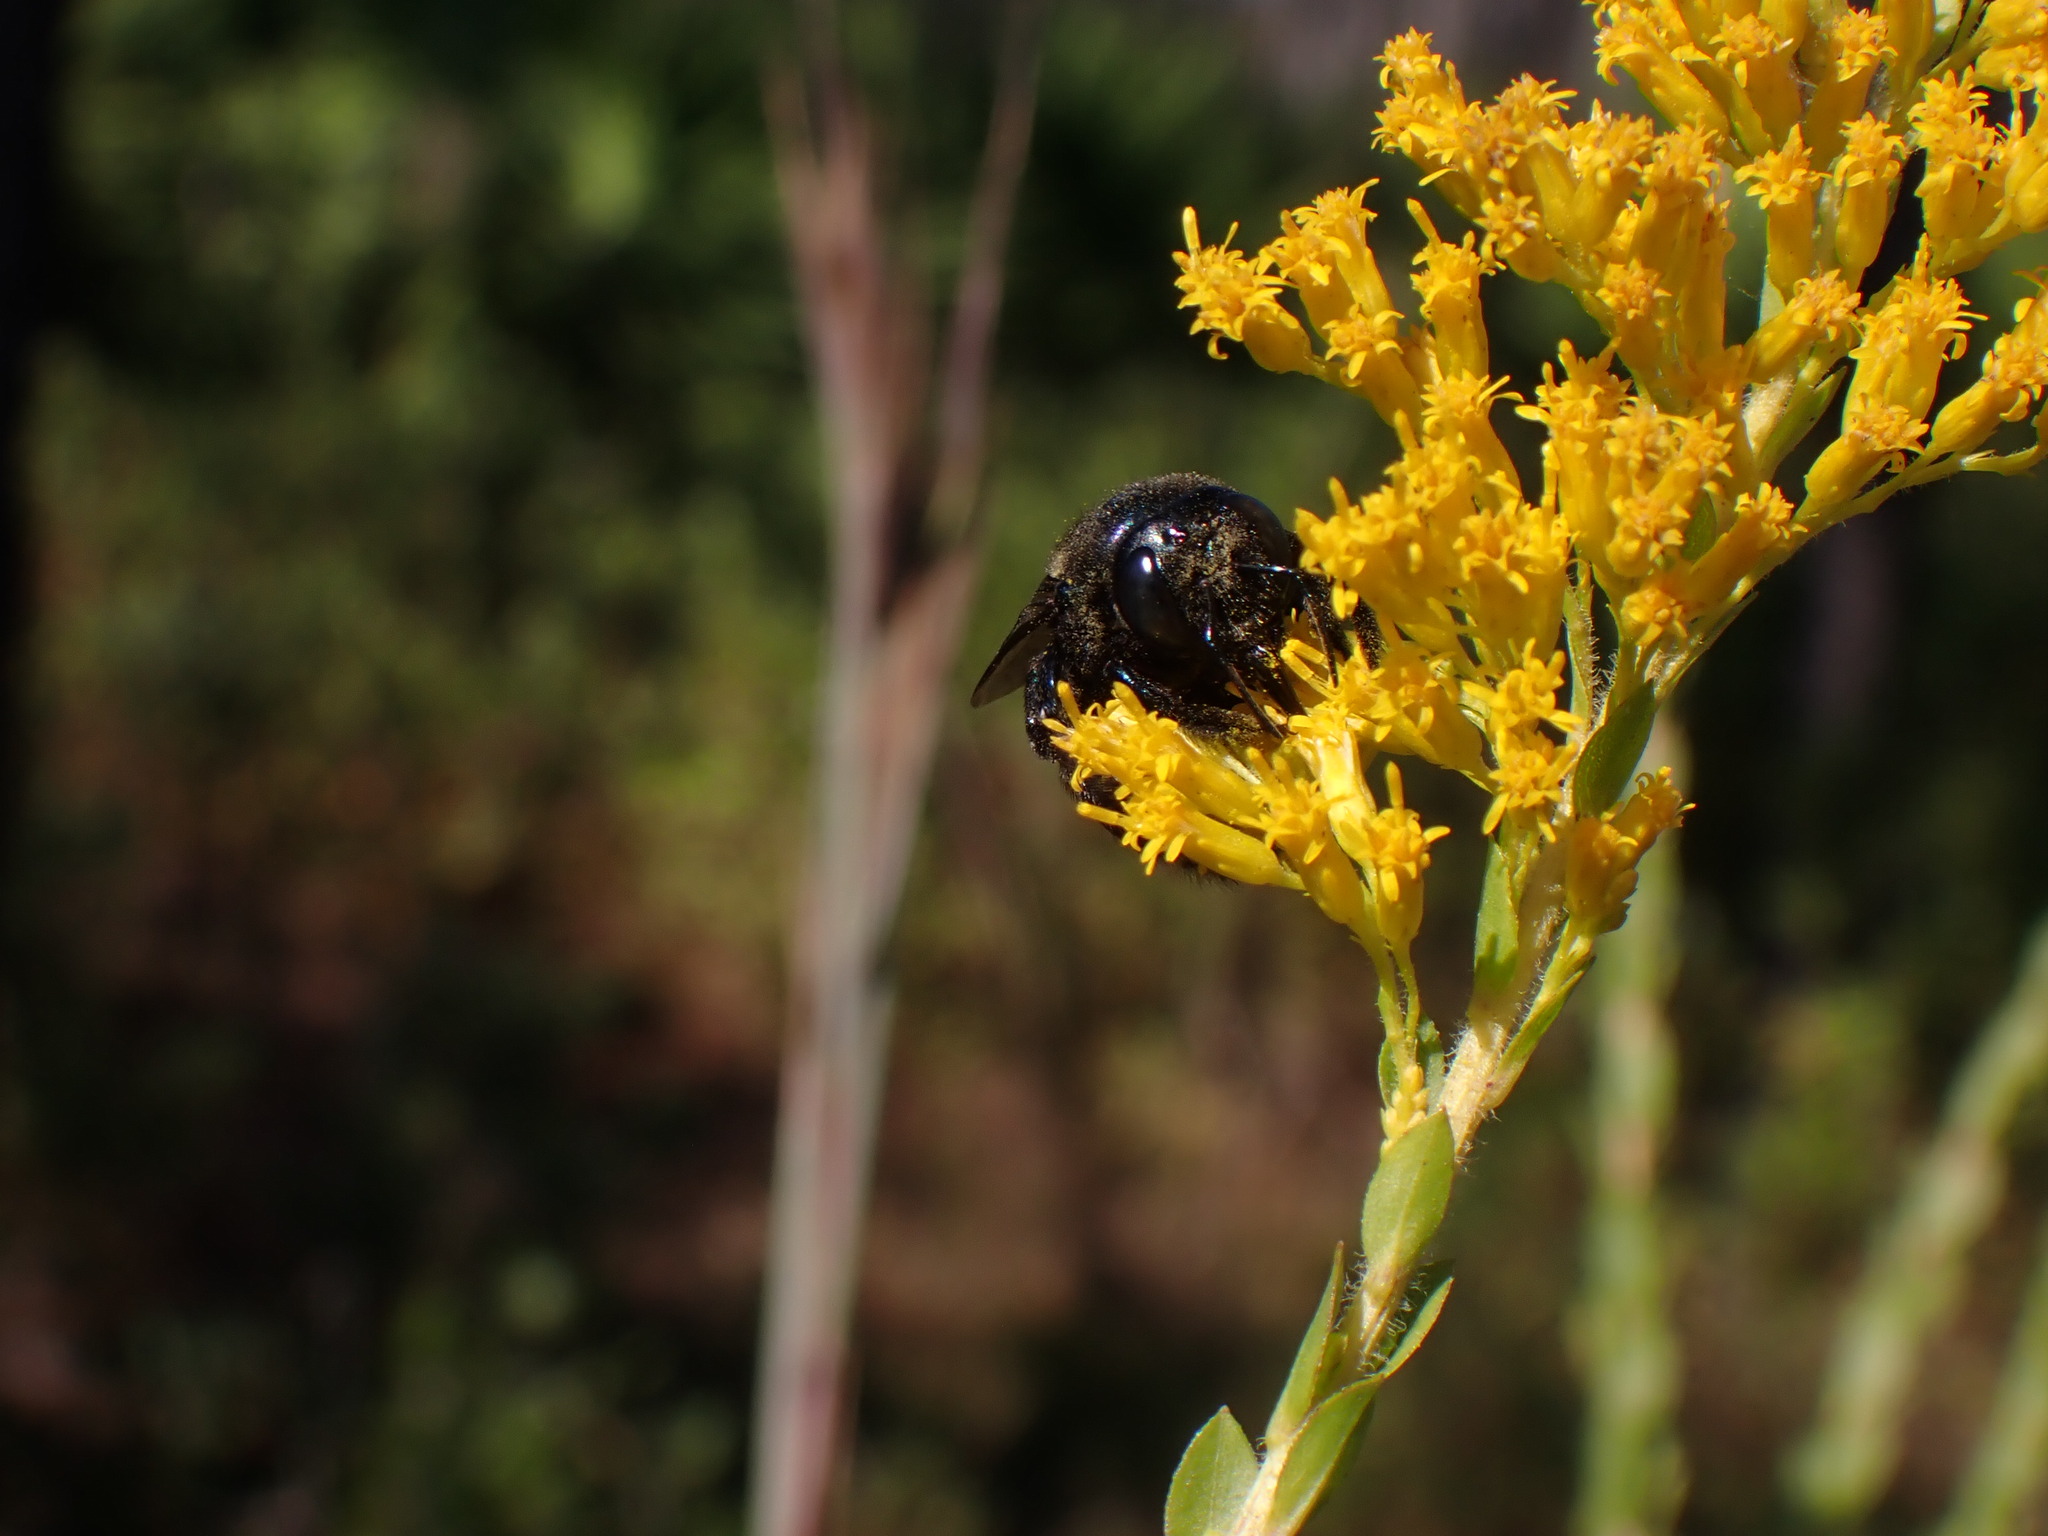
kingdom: Animalia
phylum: Arthropoda
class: Insecta
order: Hymenoptera
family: Apidae
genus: Xylocopa
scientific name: Xylocopa micans
